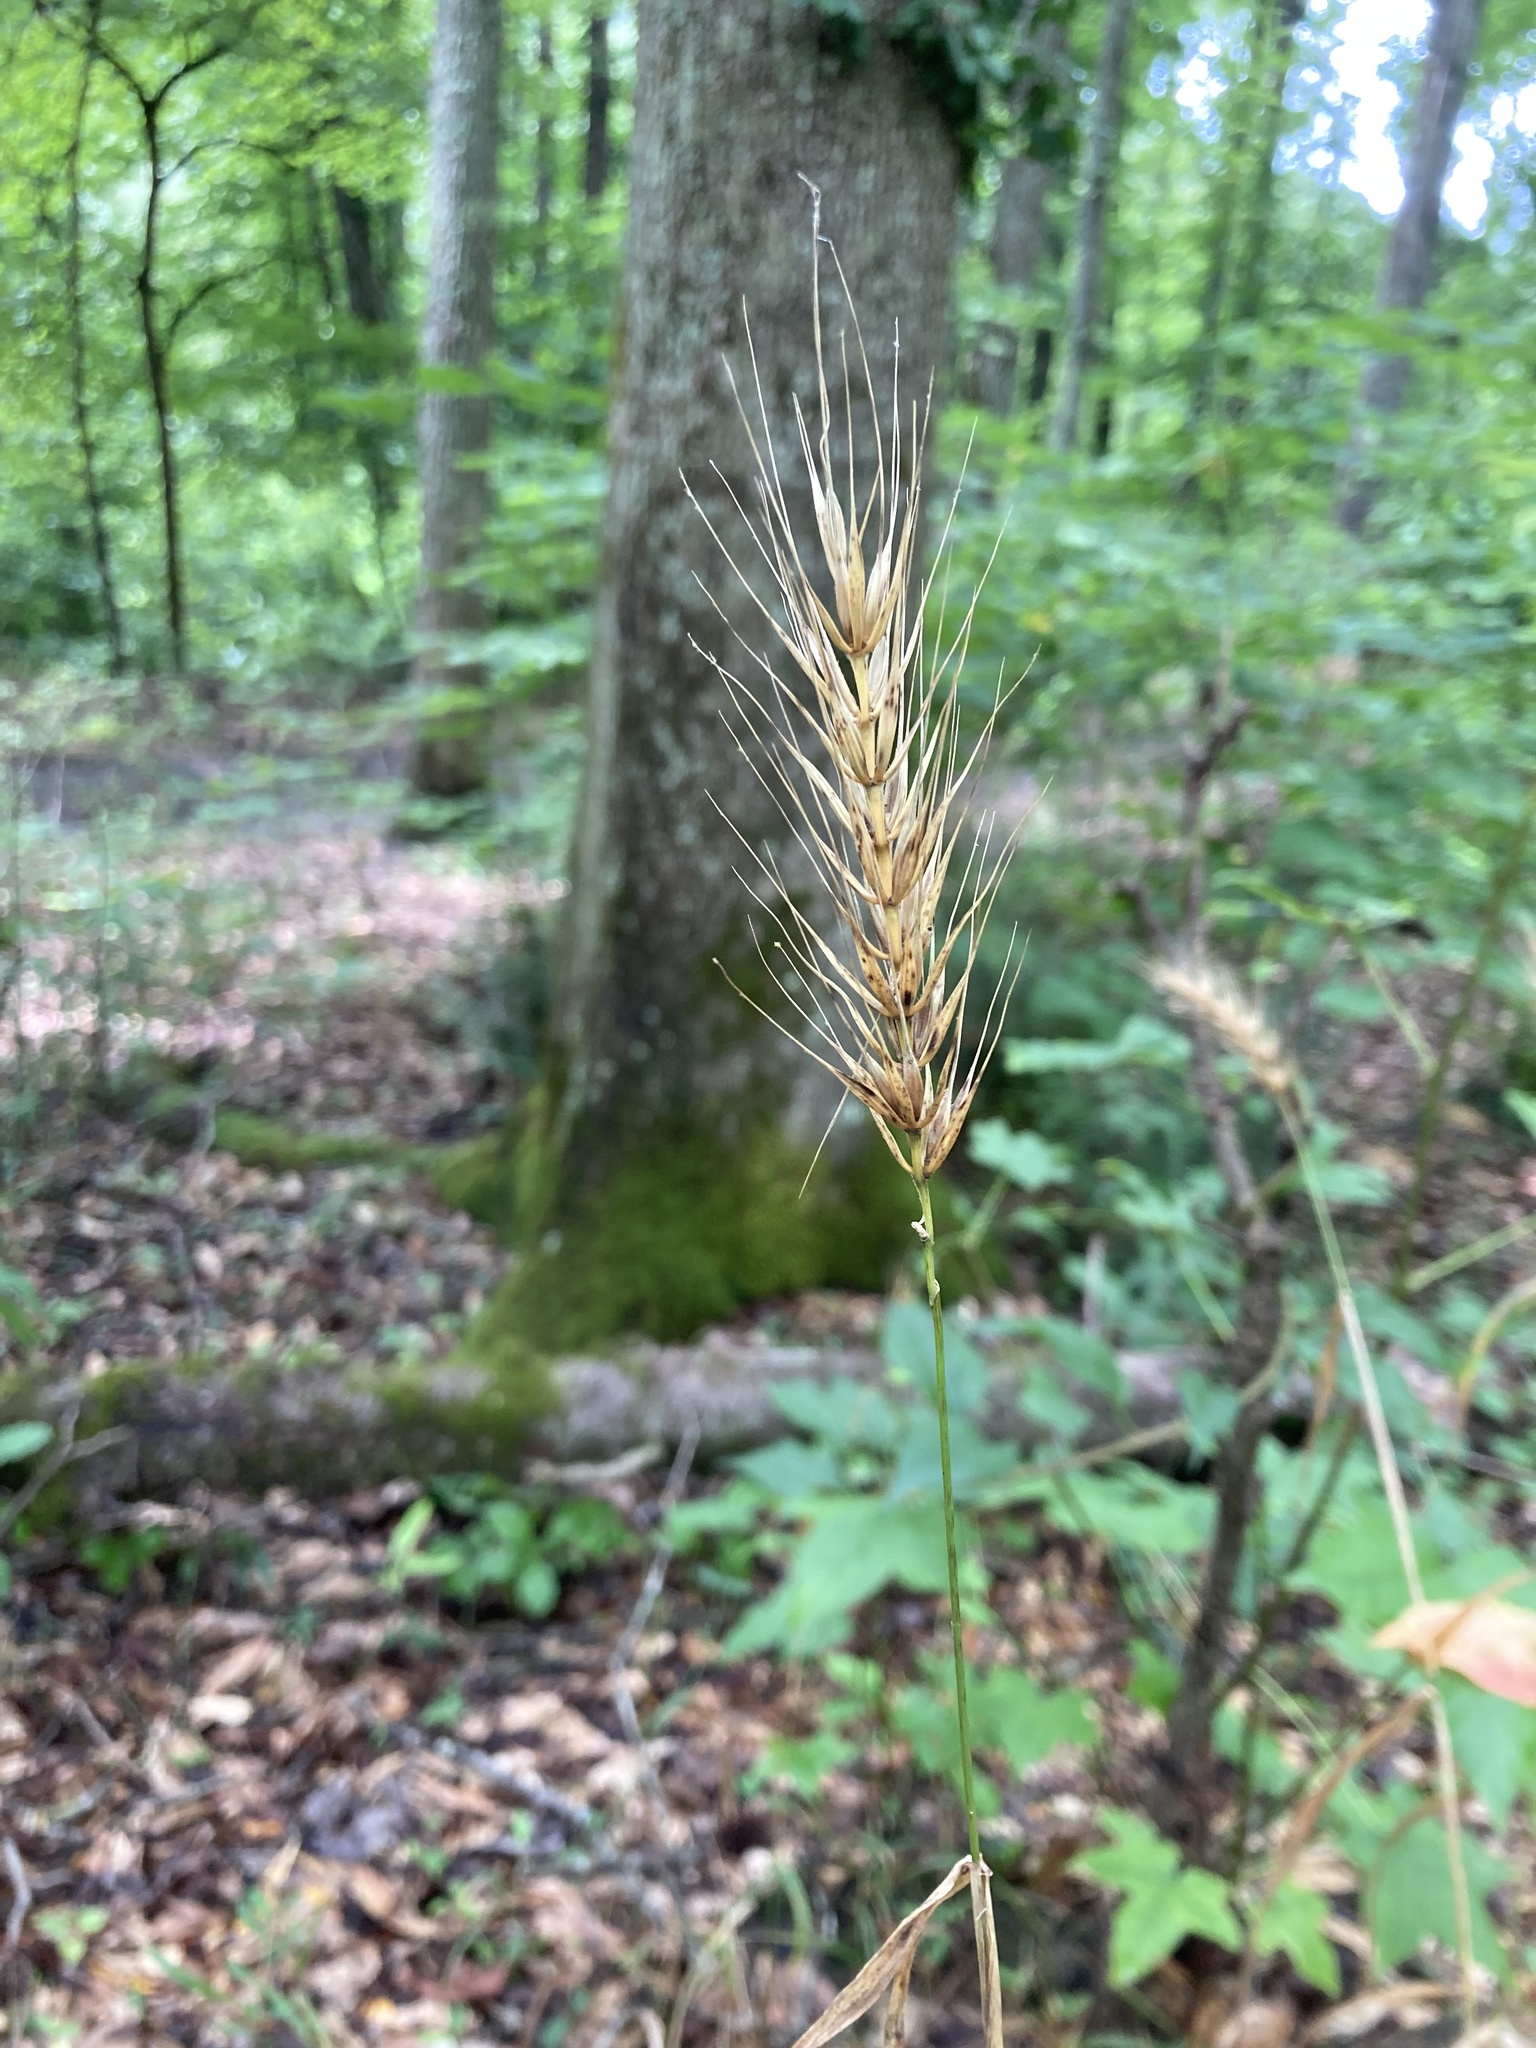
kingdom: Plantae
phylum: Tracheophyta
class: Liliopsida
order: Poales
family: Poaceae
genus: Elymus
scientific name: Elymus macgregorii
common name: Early wild rye
